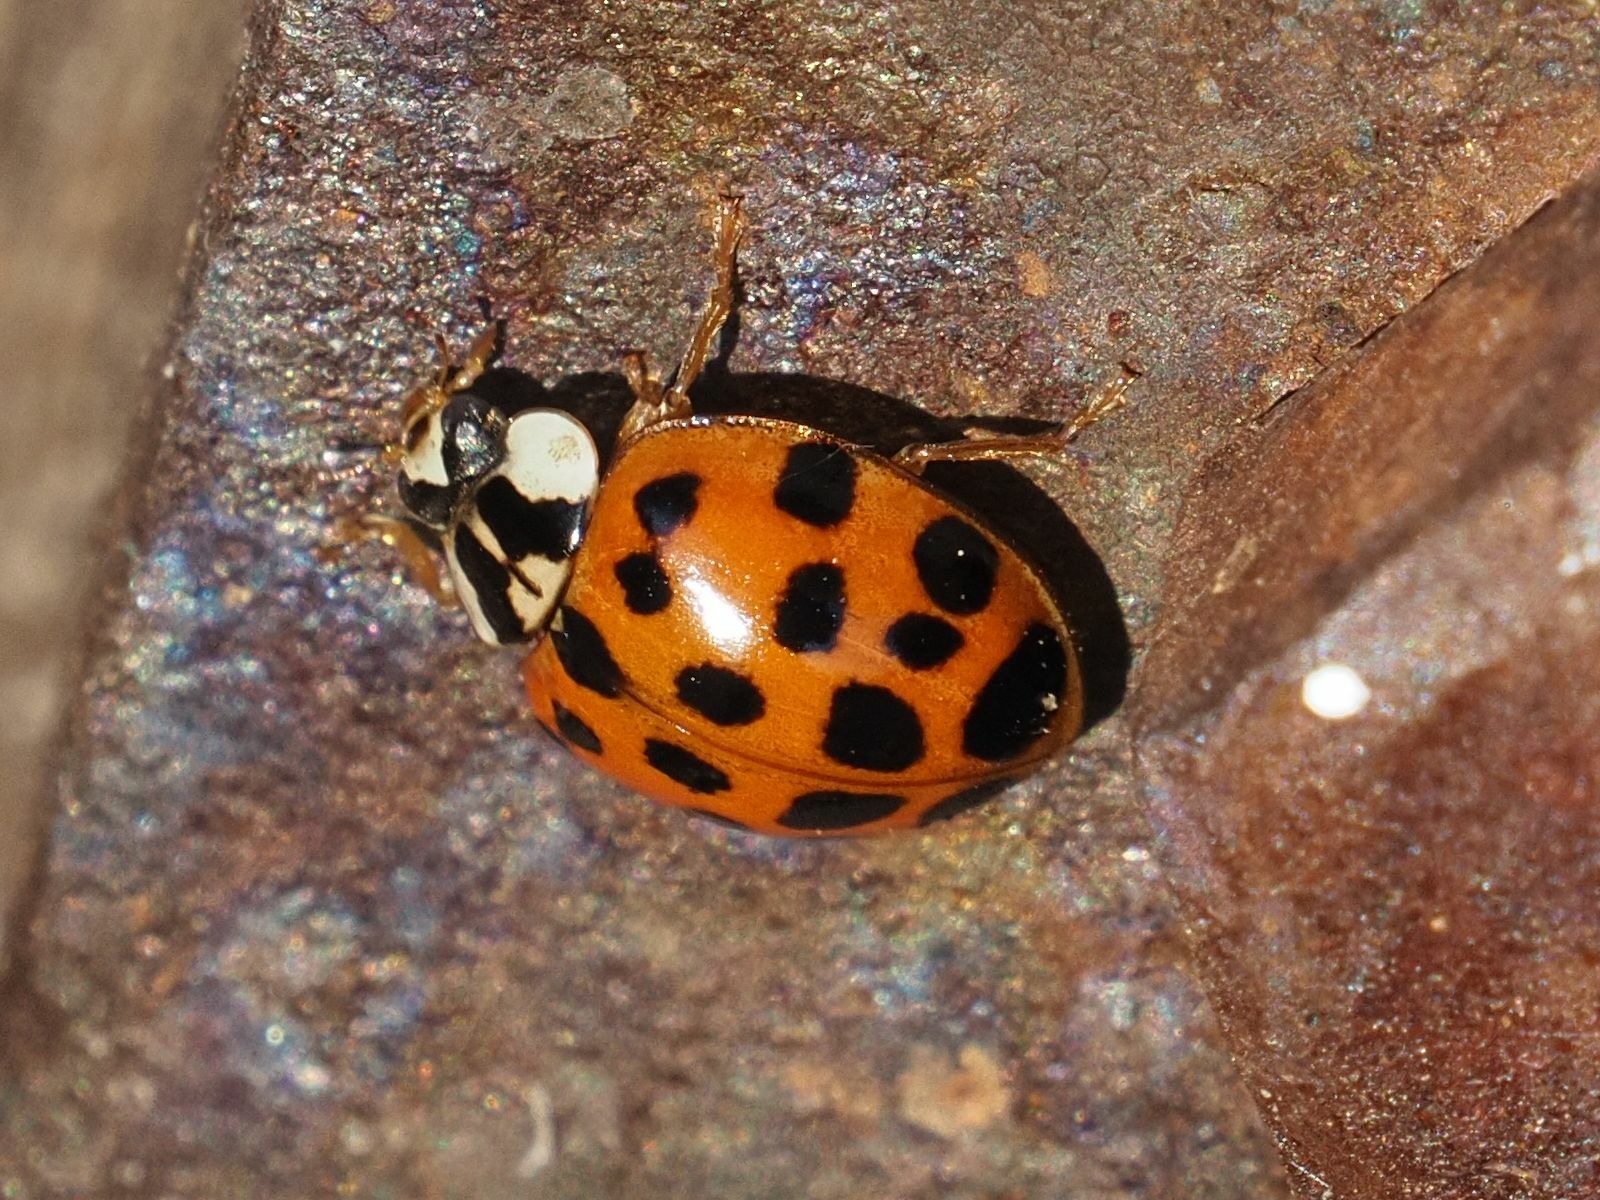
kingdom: Animalia
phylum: Arthropoda
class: Insecta
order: Coleoptera
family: Coccinellidae
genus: Harmonia
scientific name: Harmonia axyridis
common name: Harlequin ladybird
